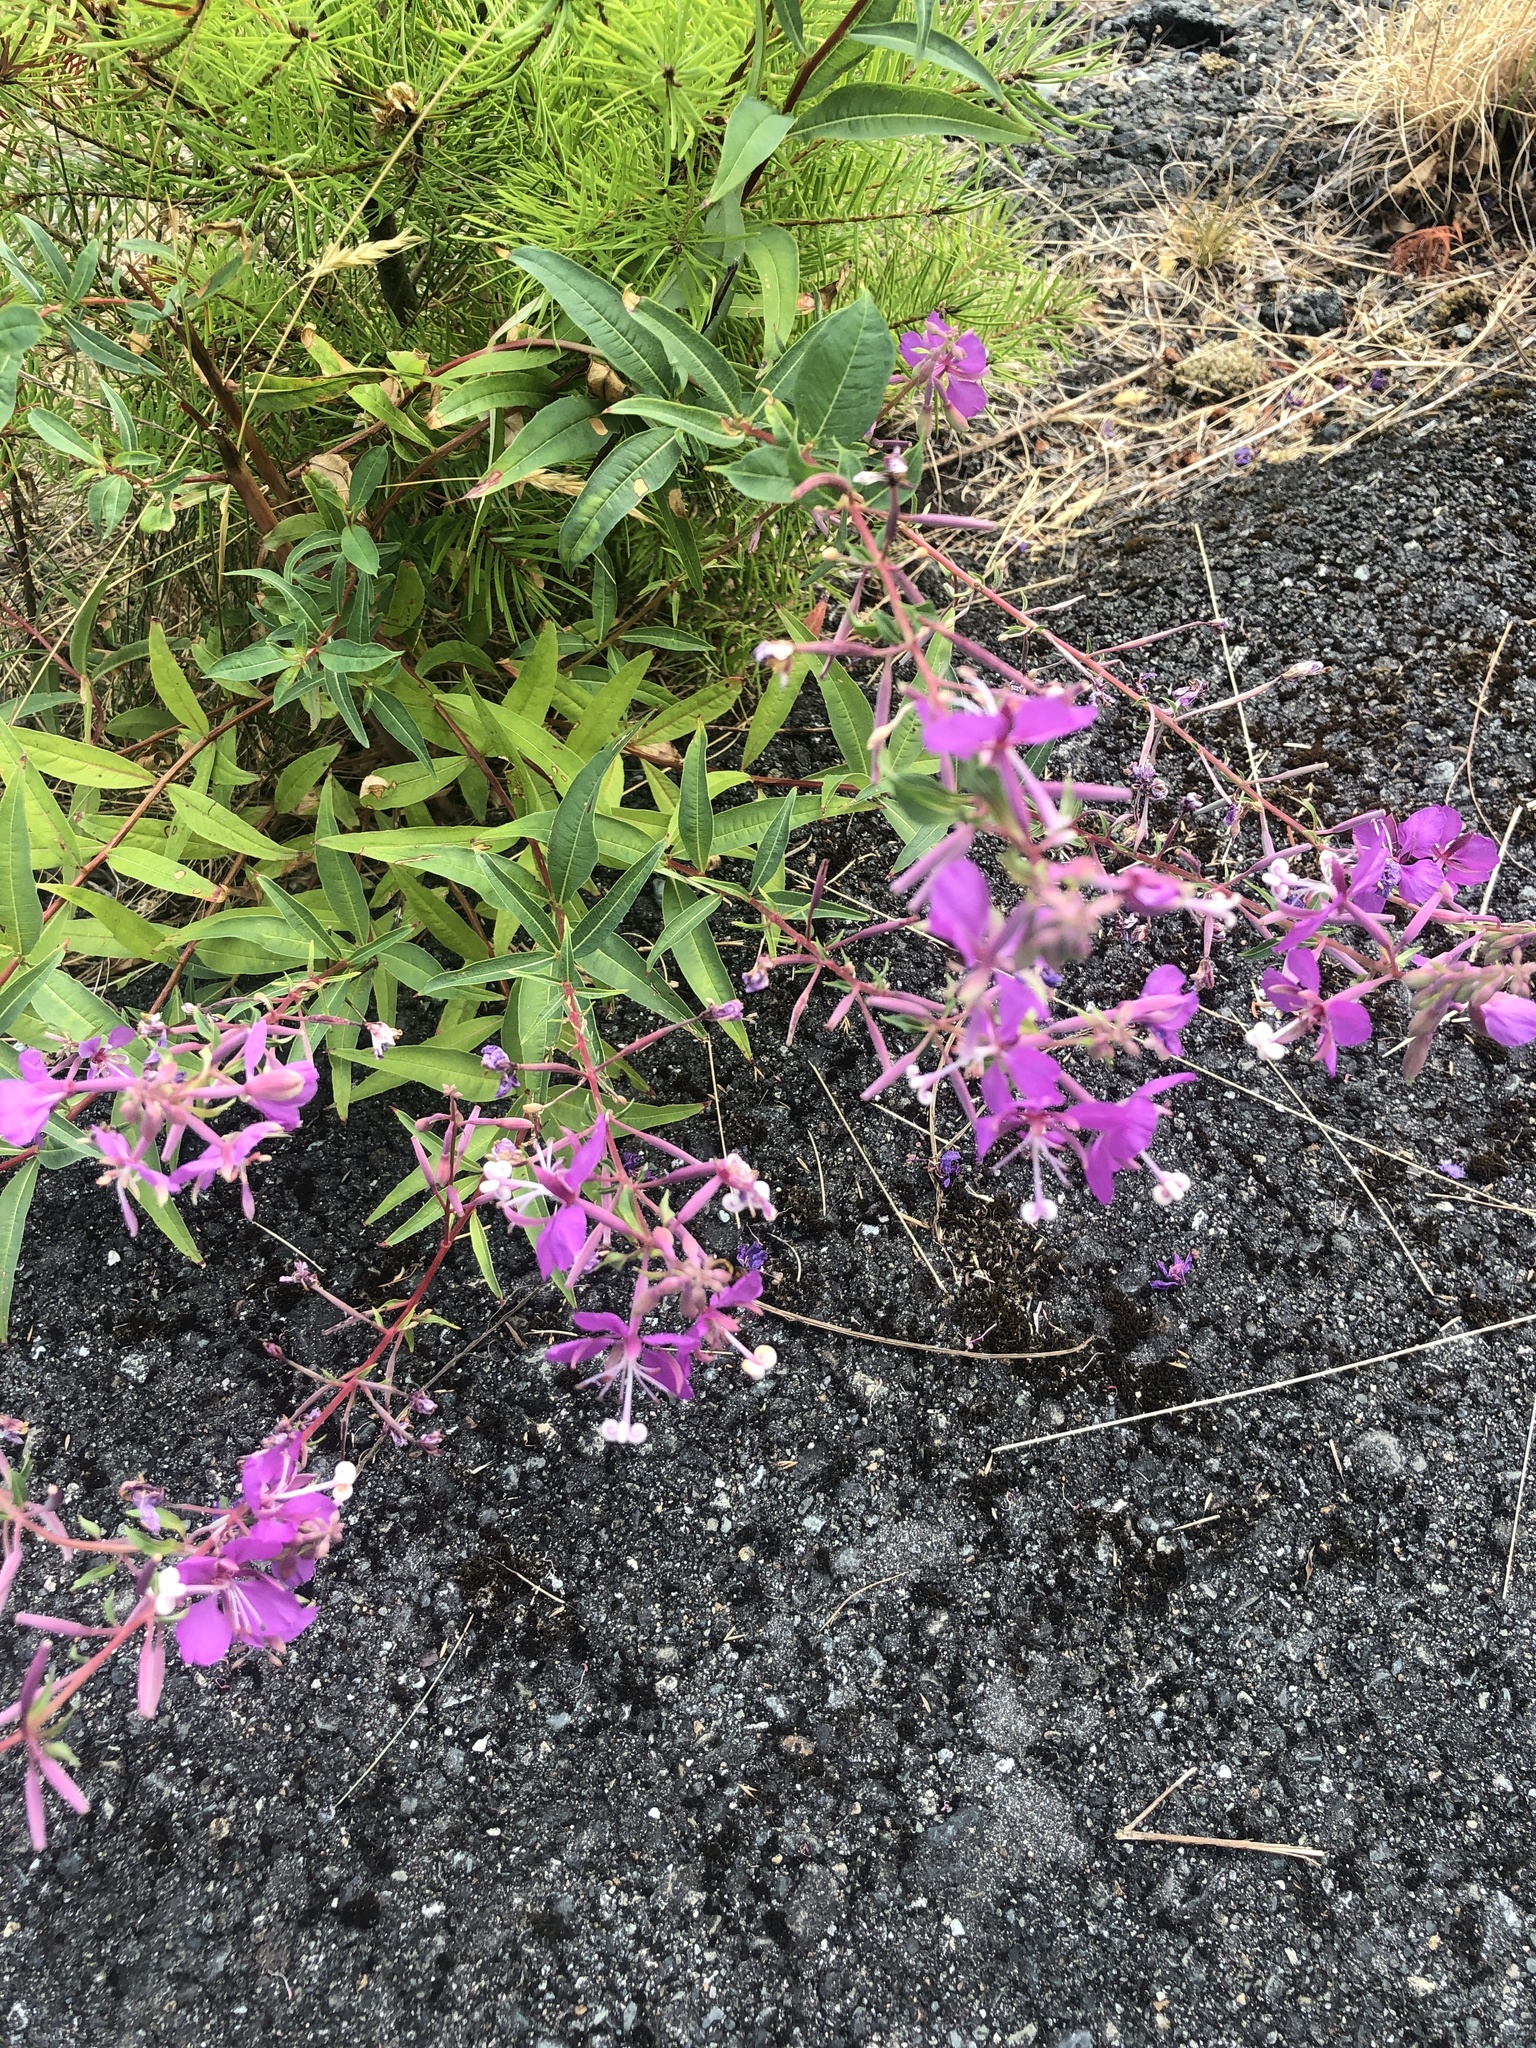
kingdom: Plantae
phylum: Tracheophyta
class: Magnoliopsida
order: Myrtales
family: Onagraceae
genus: Chamaenerion
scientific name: Chamaenerion angustifolium
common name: Fireweed
